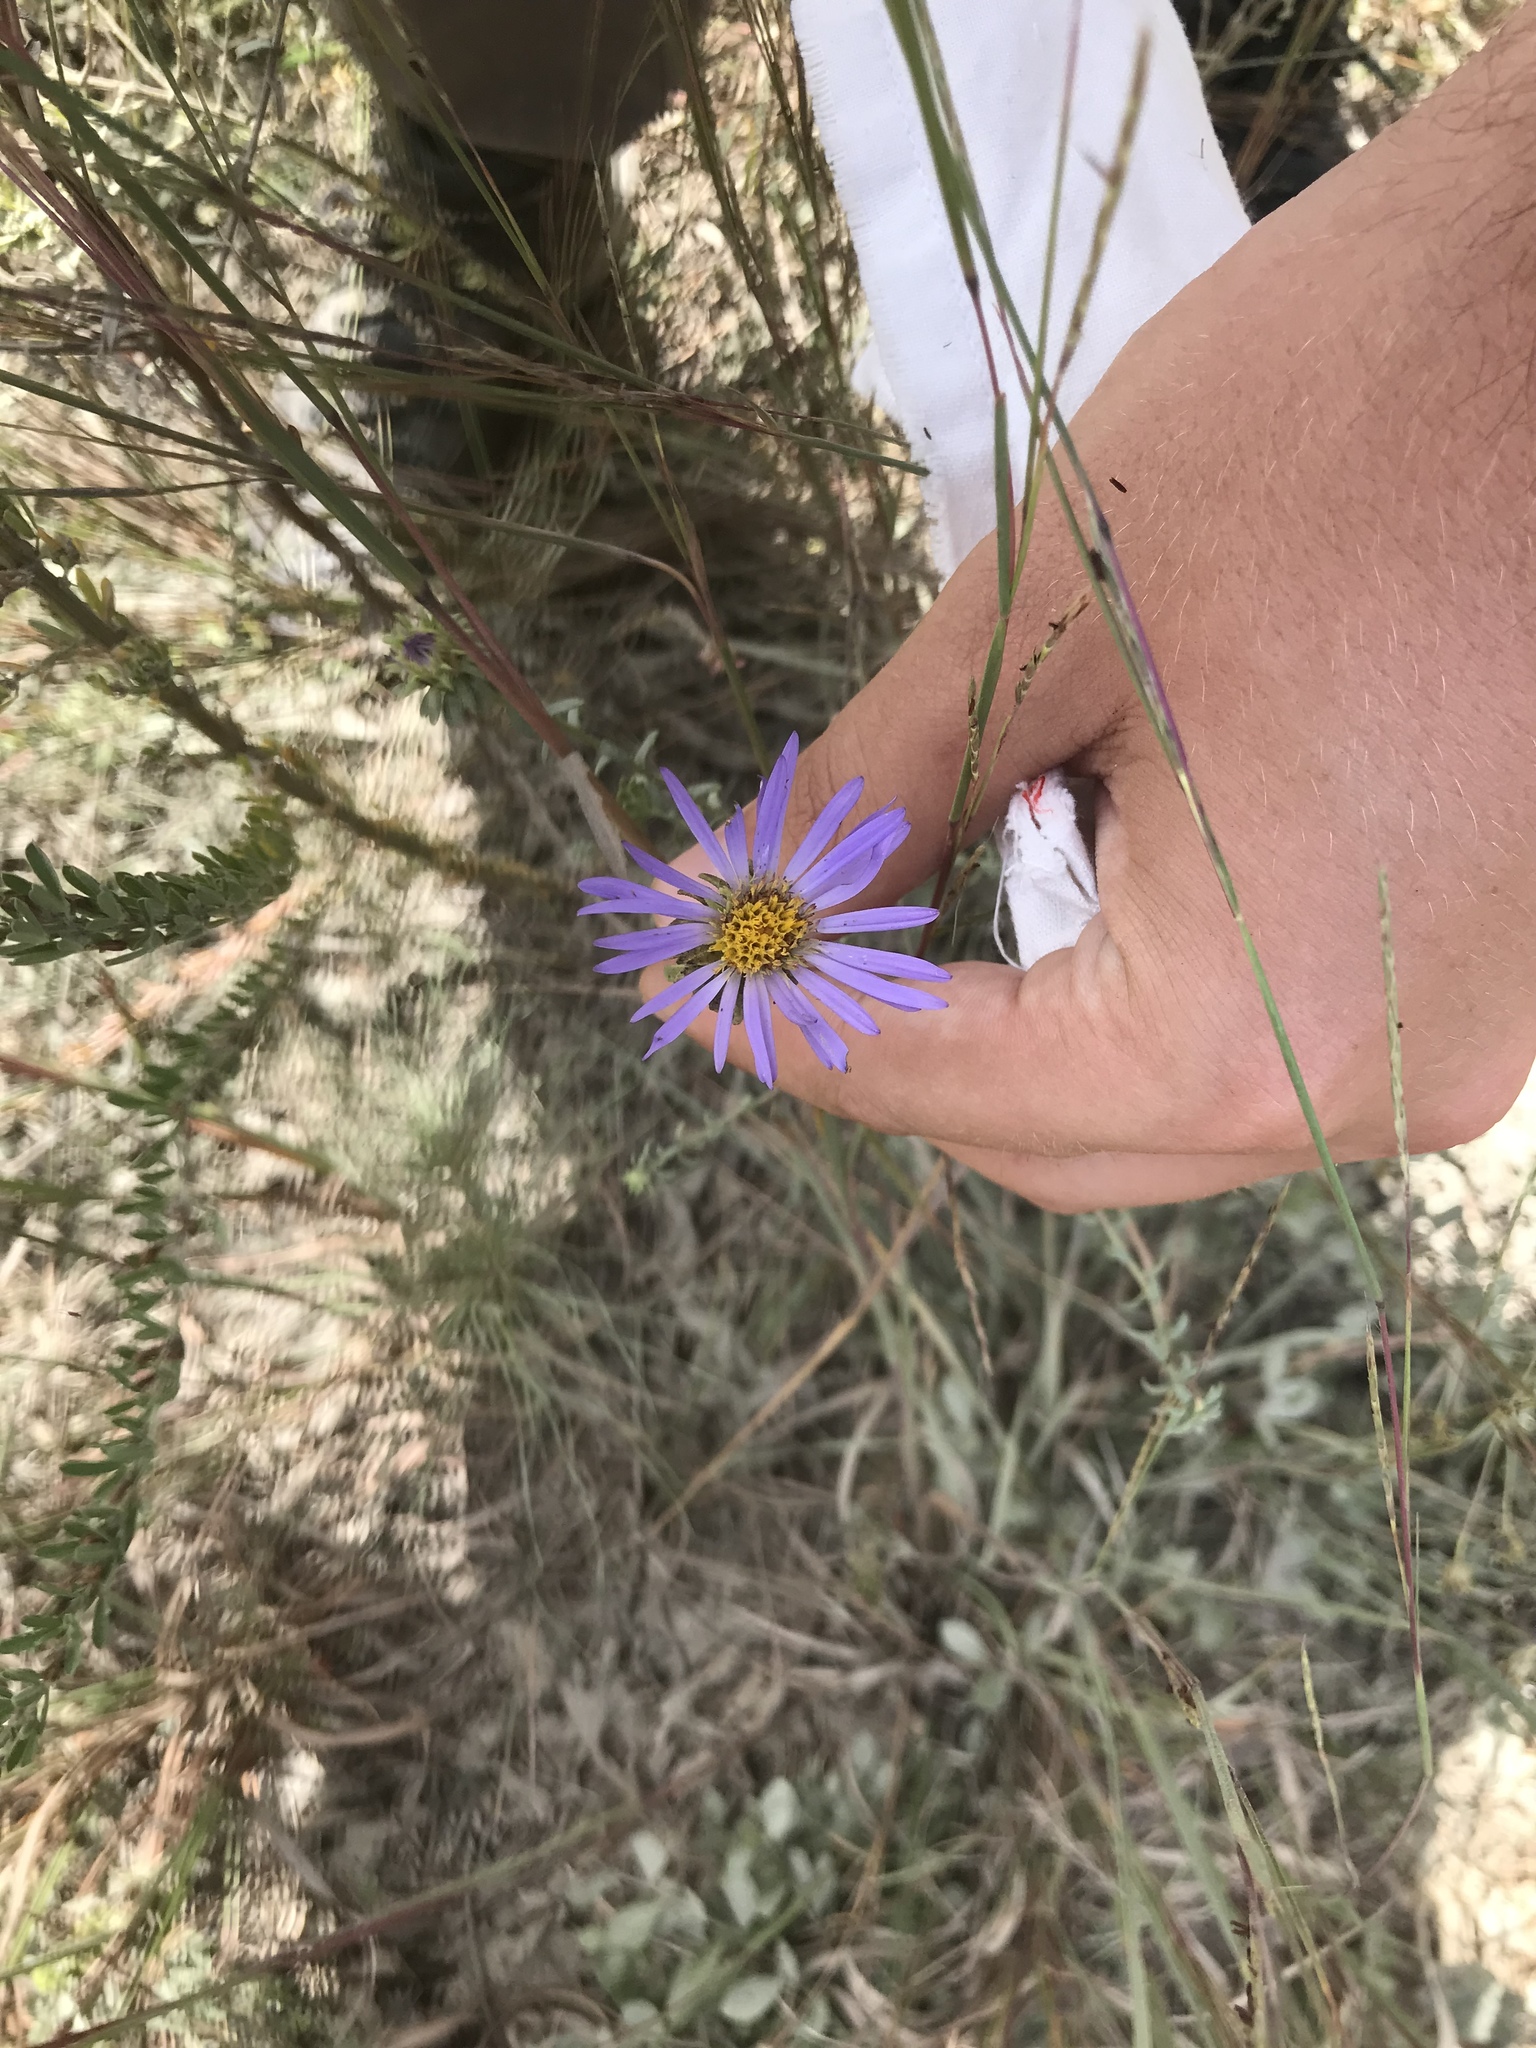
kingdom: Plantae
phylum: Tracheophyta
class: Magnoliopsida
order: Asterales
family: Asteraceae
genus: Symphyotrichum
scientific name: Symphyotrichum grandiflorum
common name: Big-head aster
